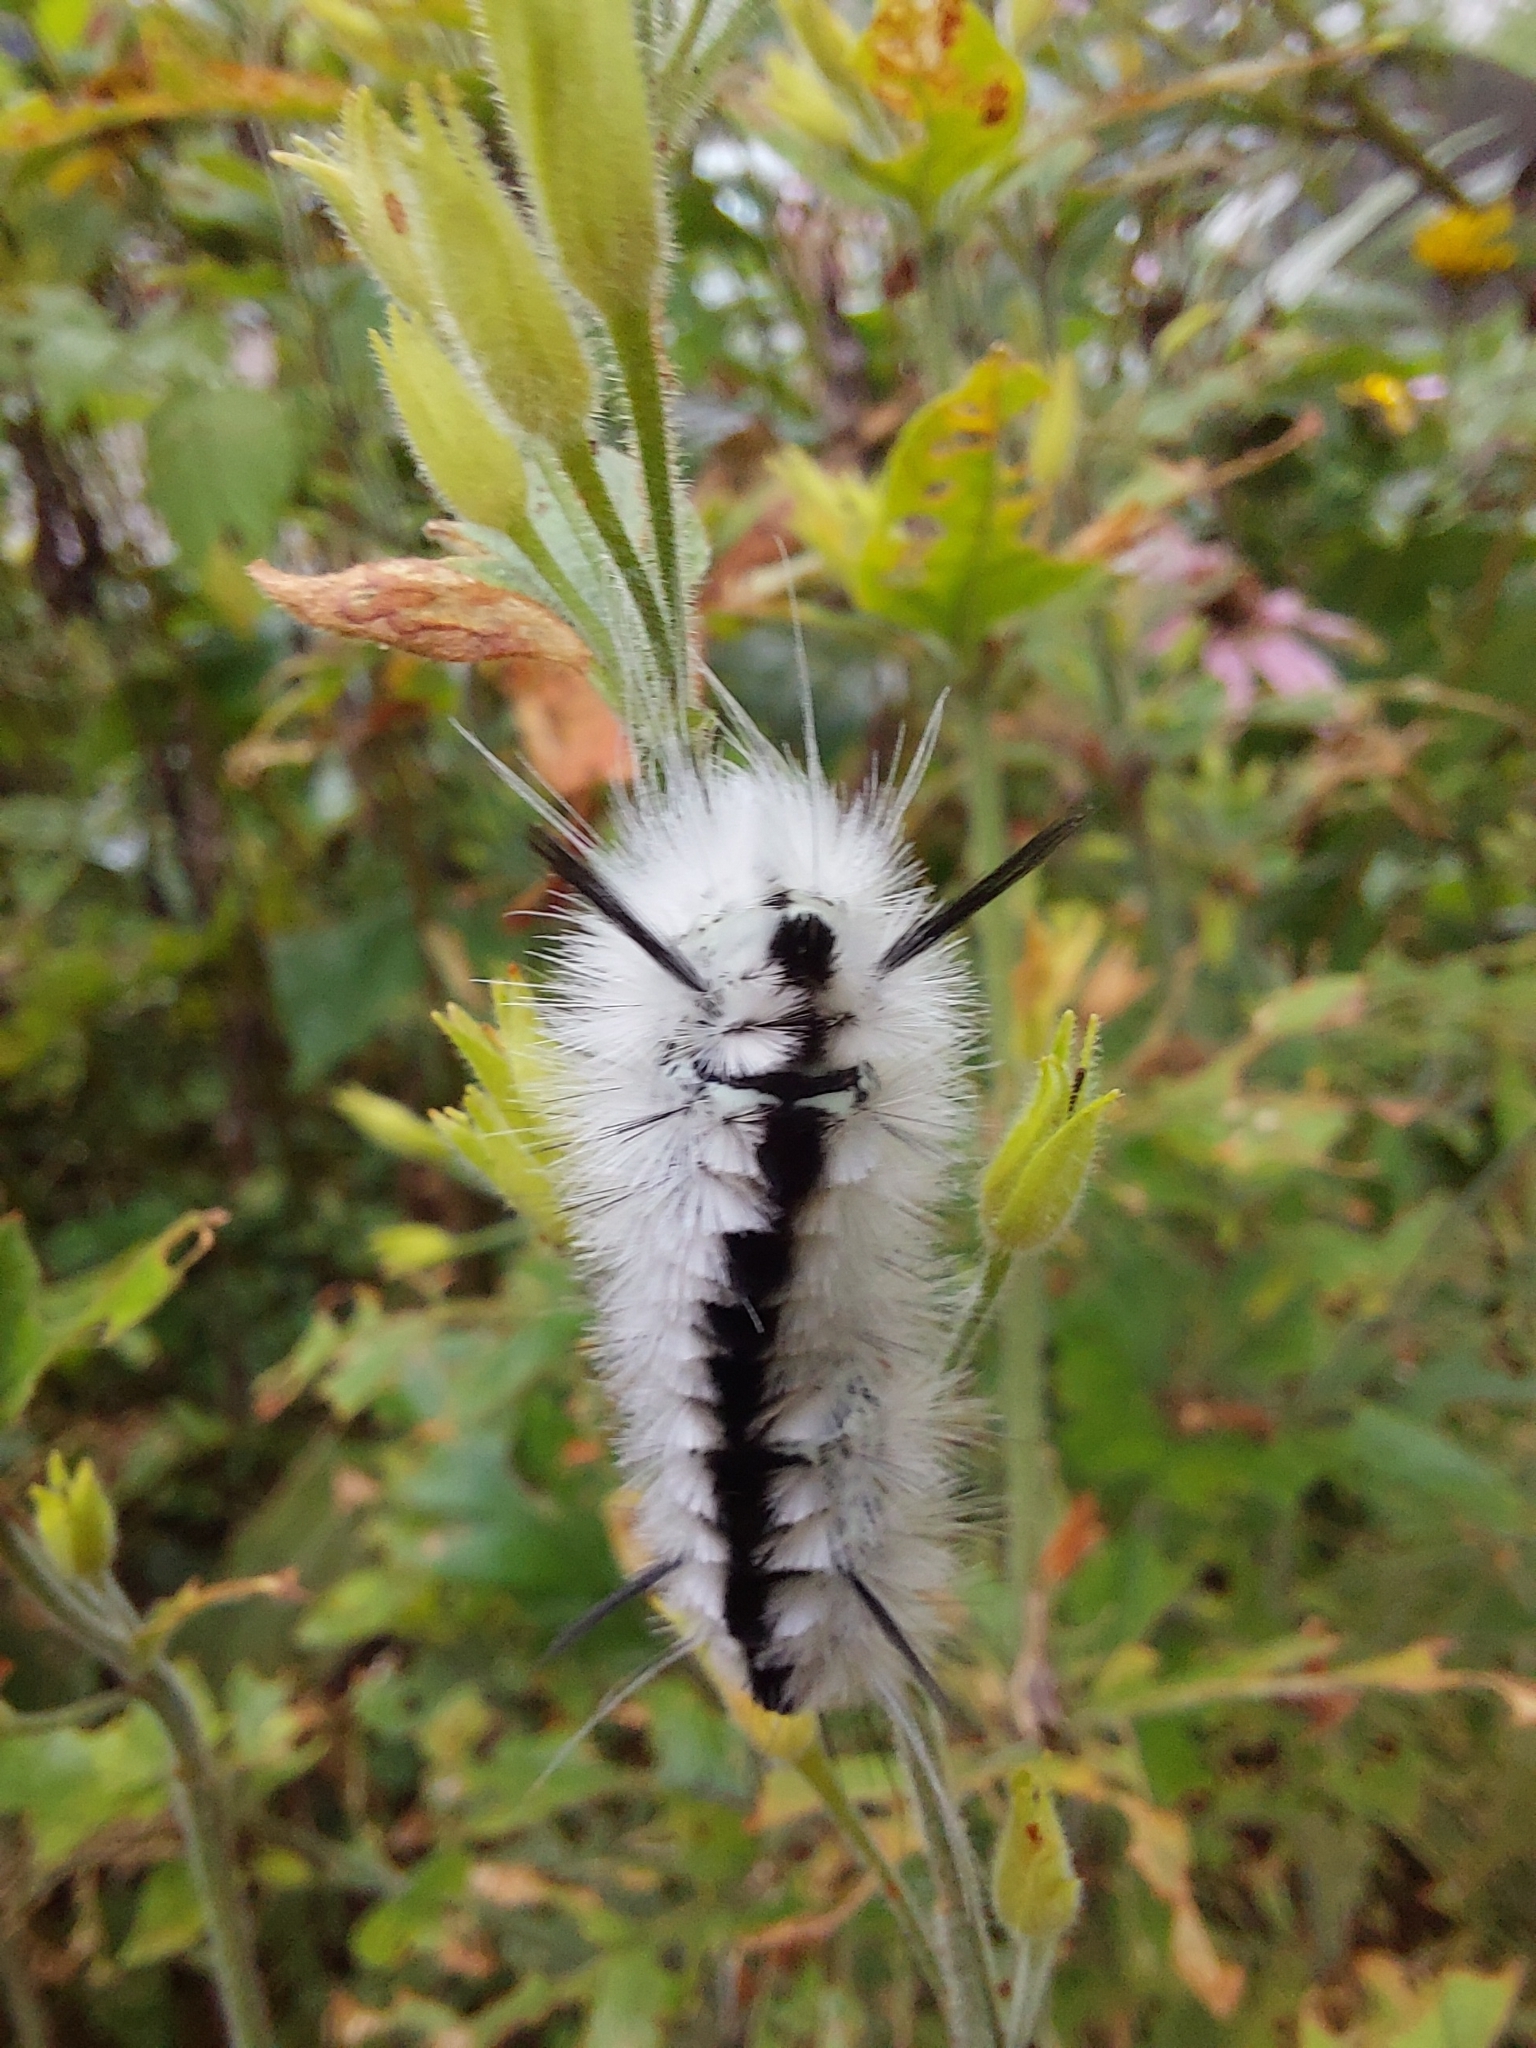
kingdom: Animalia
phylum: Arthropoda
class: Insecta
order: Lepidoptera
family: Erebidae
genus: Lophocampa
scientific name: Lophocampa caryae
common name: Hickory tussock moth
